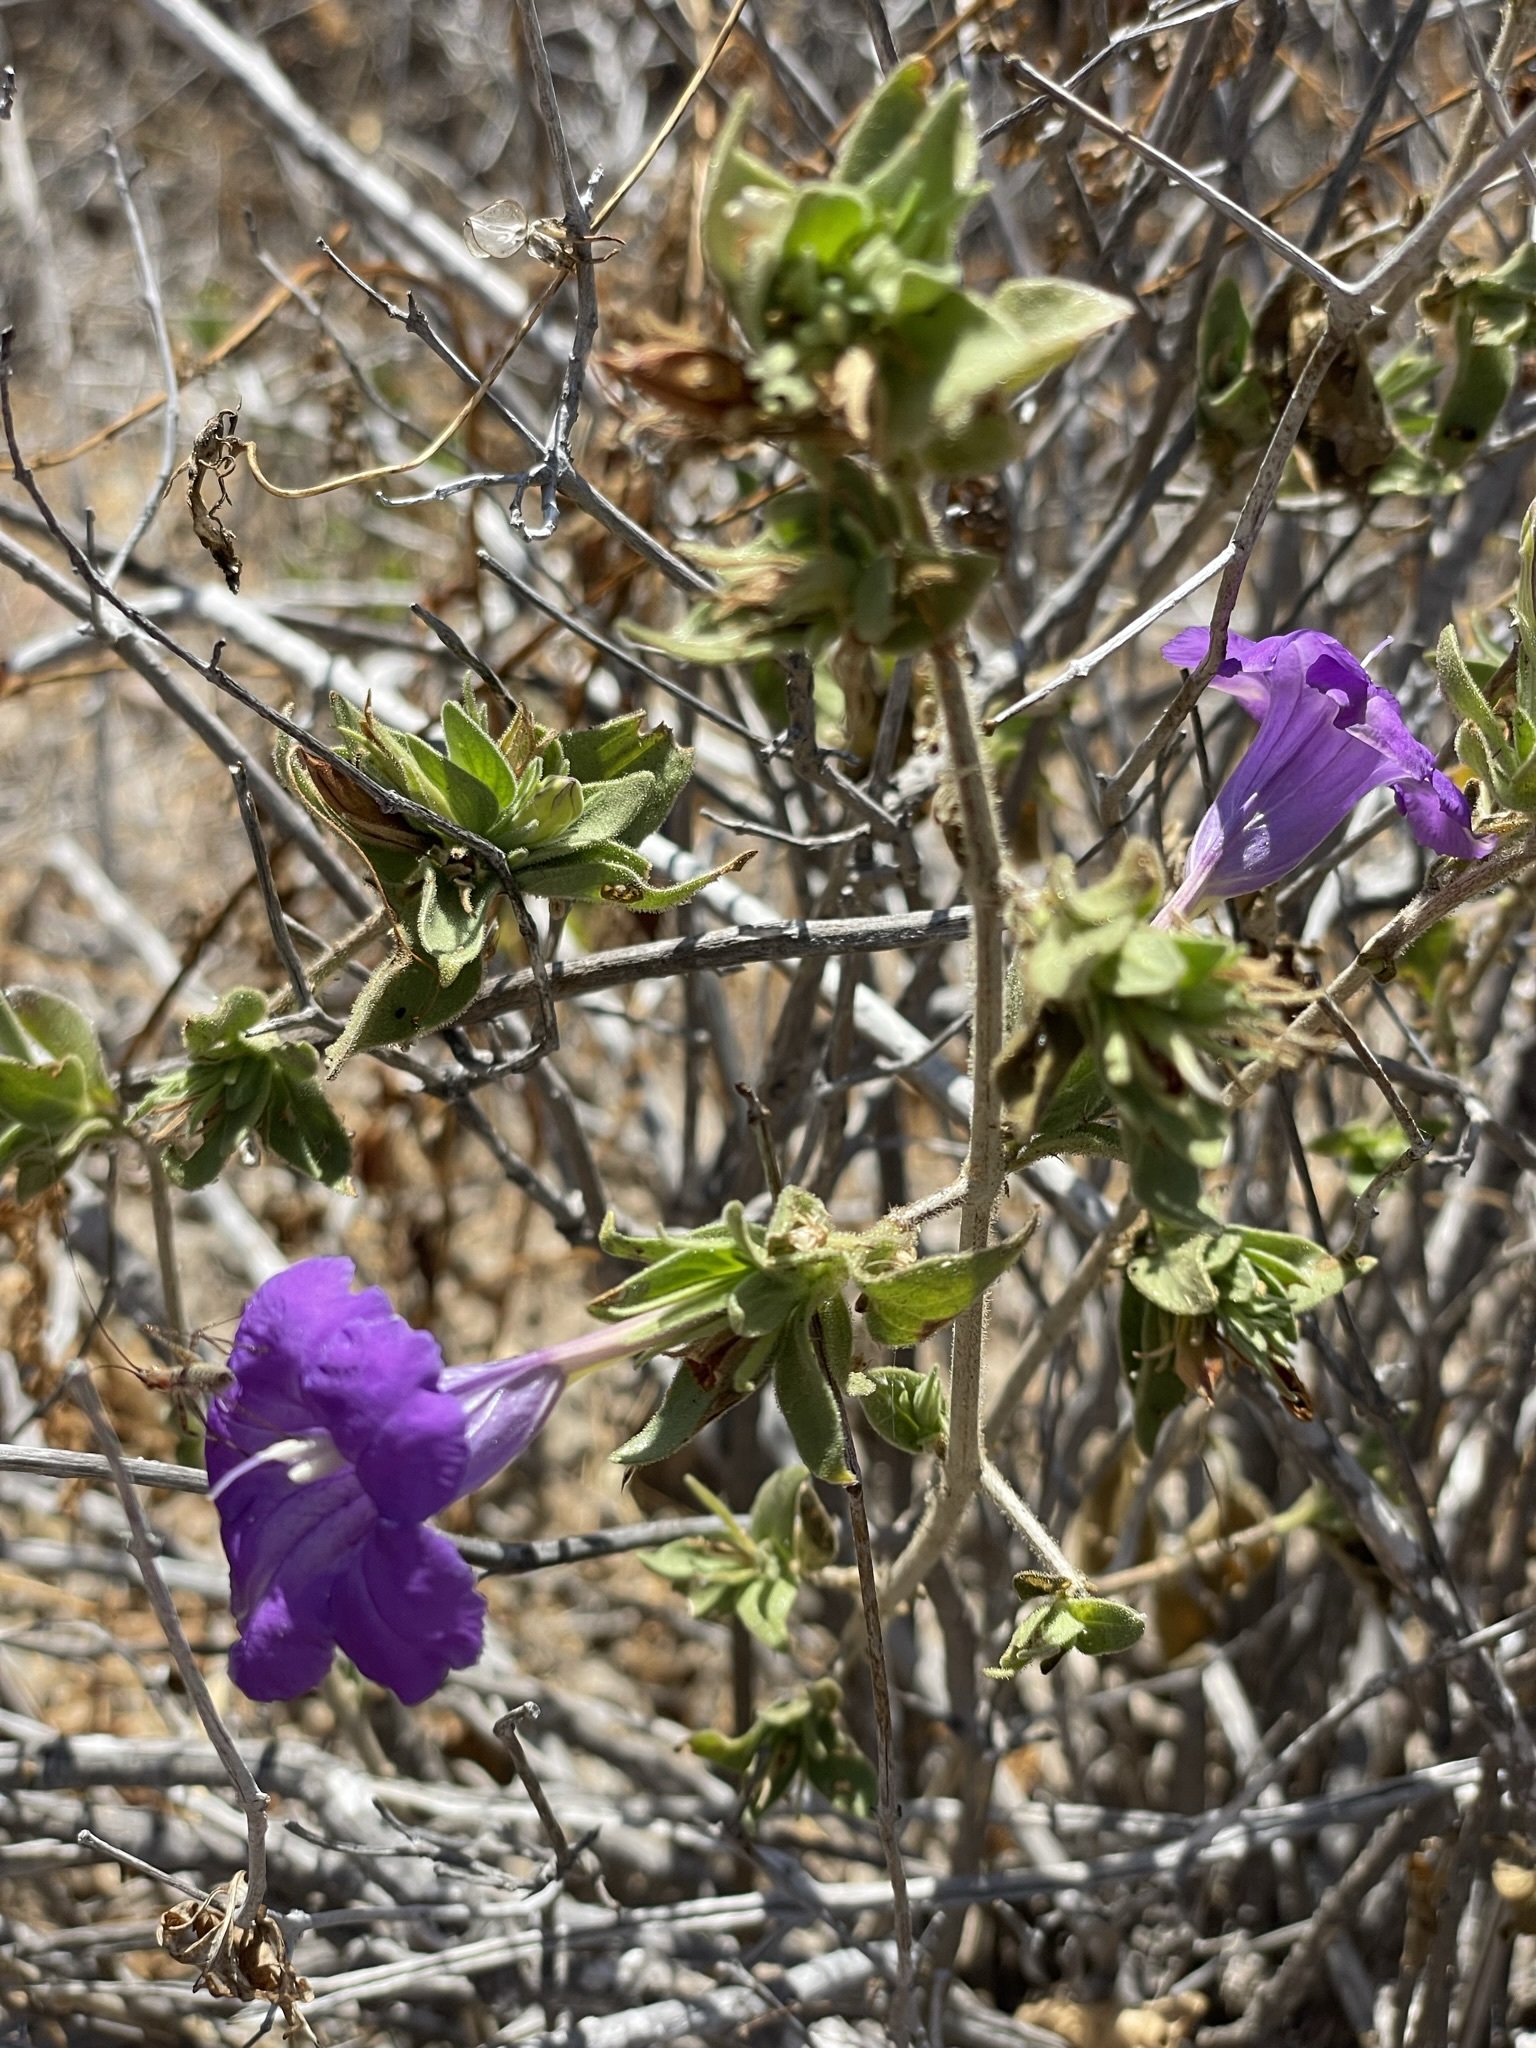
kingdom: Plantae
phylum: Tracheophyta
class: Magnoliopsida
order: Lamiales
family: Acanthaceae
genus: Ruellia
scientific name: Ruellia californica
